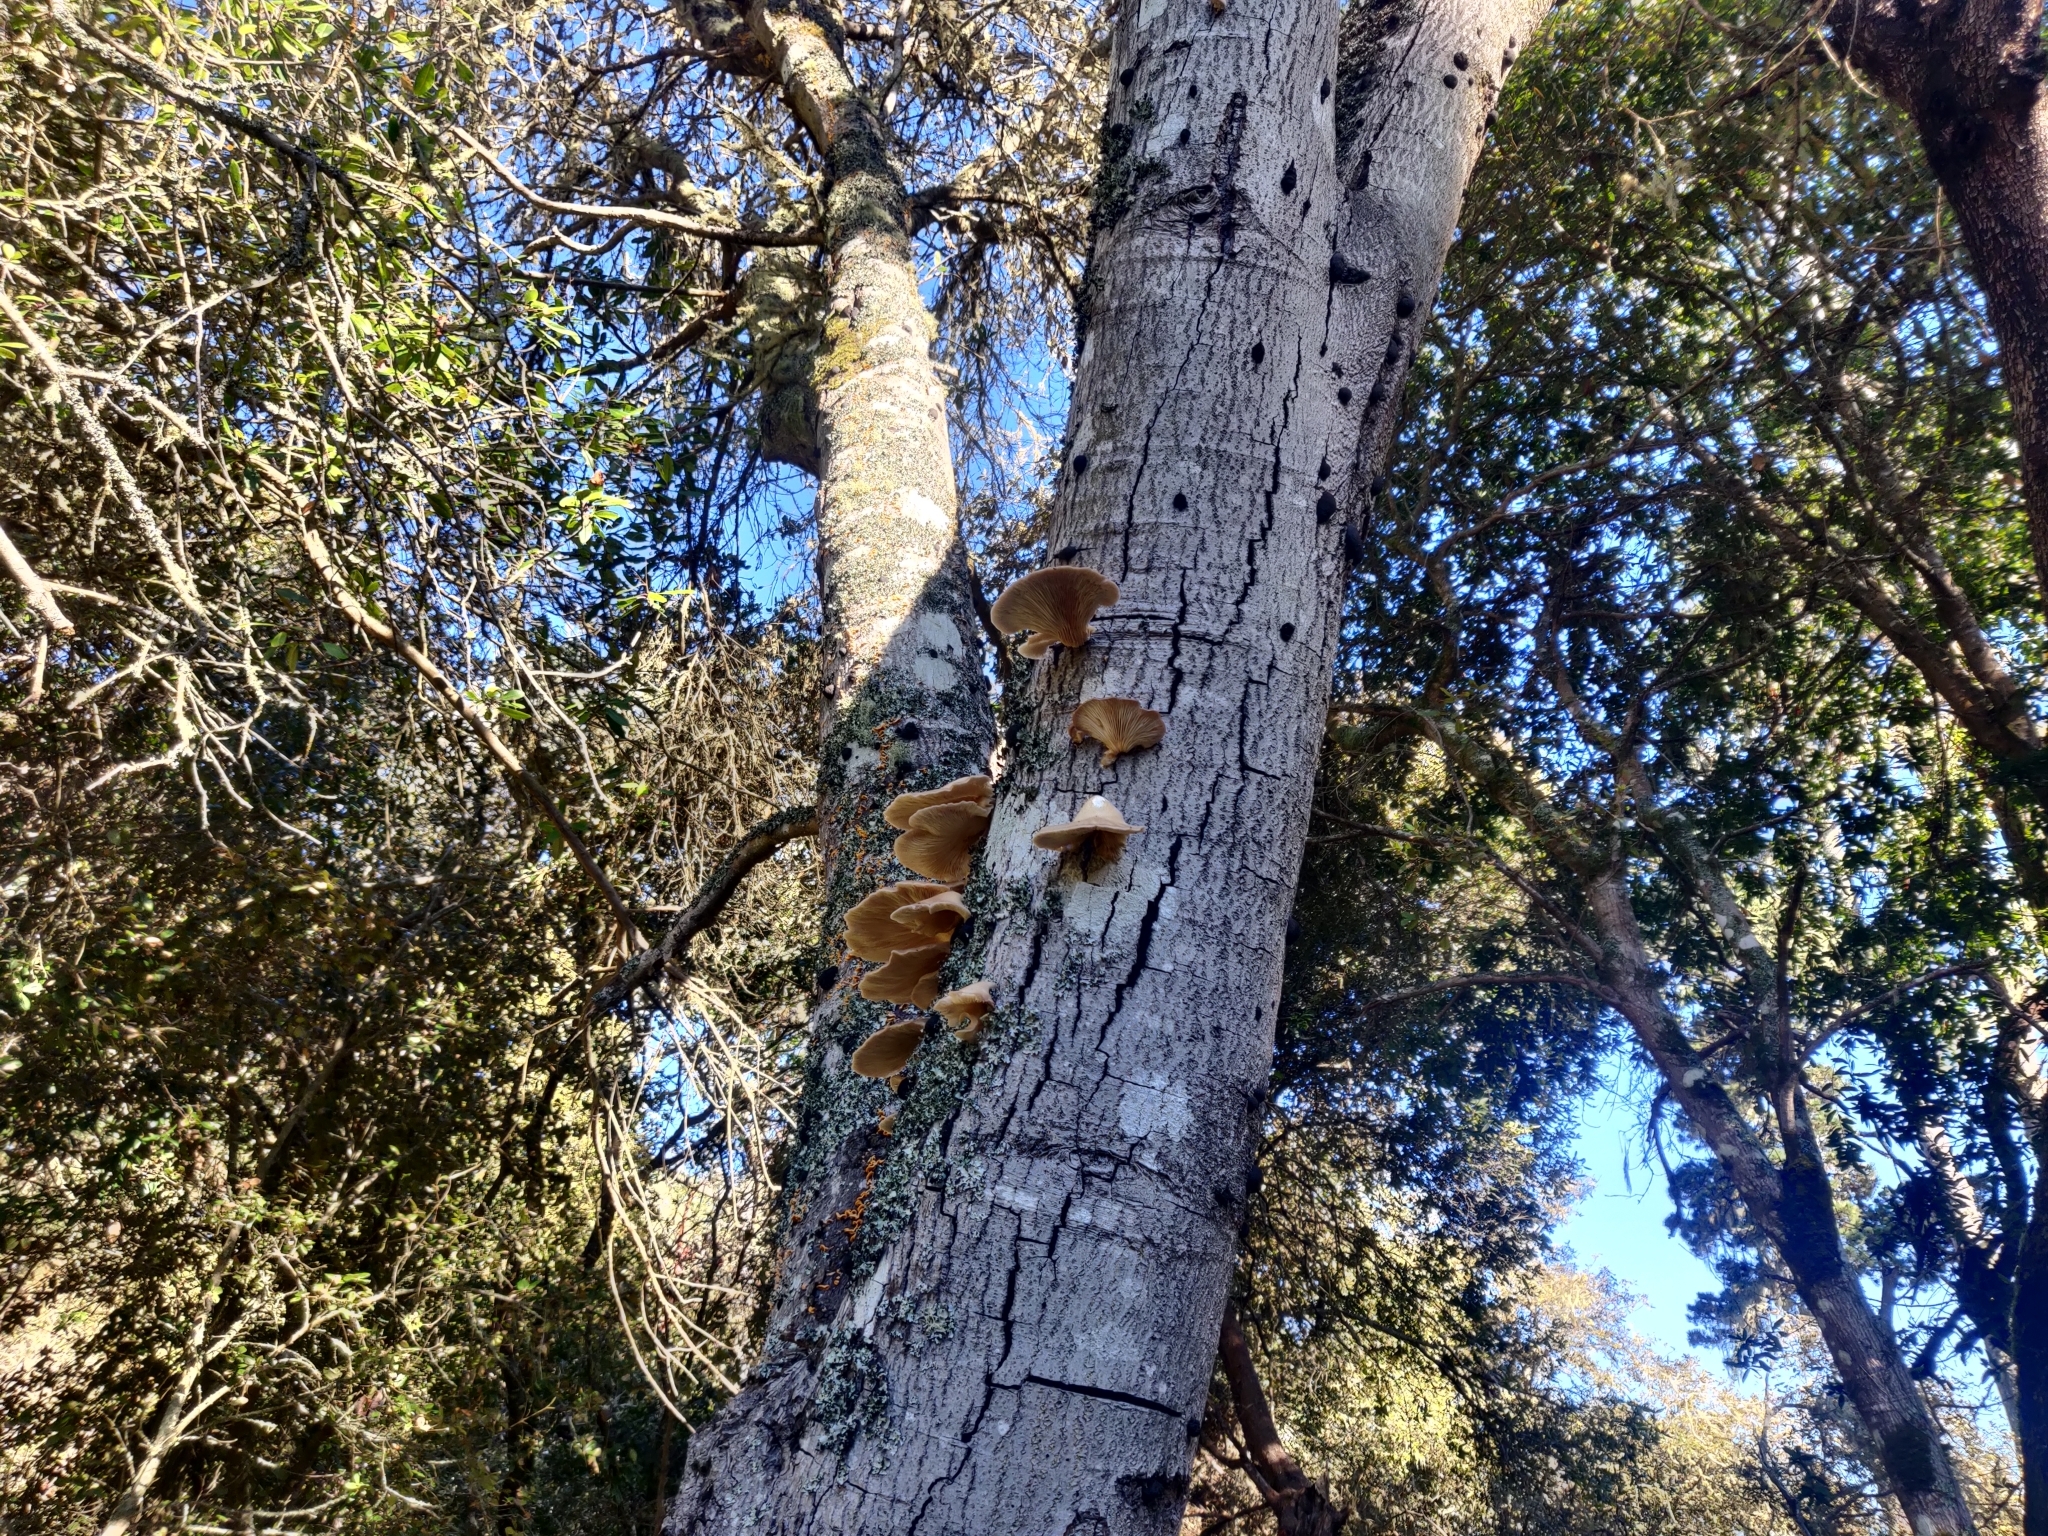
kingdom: Fungi
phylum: Basidiomycota
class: Agaricomycetes
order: Agaricales
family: Pleurotaceae
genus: Pleurotus
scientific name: Pleurotus ostreatus
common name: Oyster mushroom
